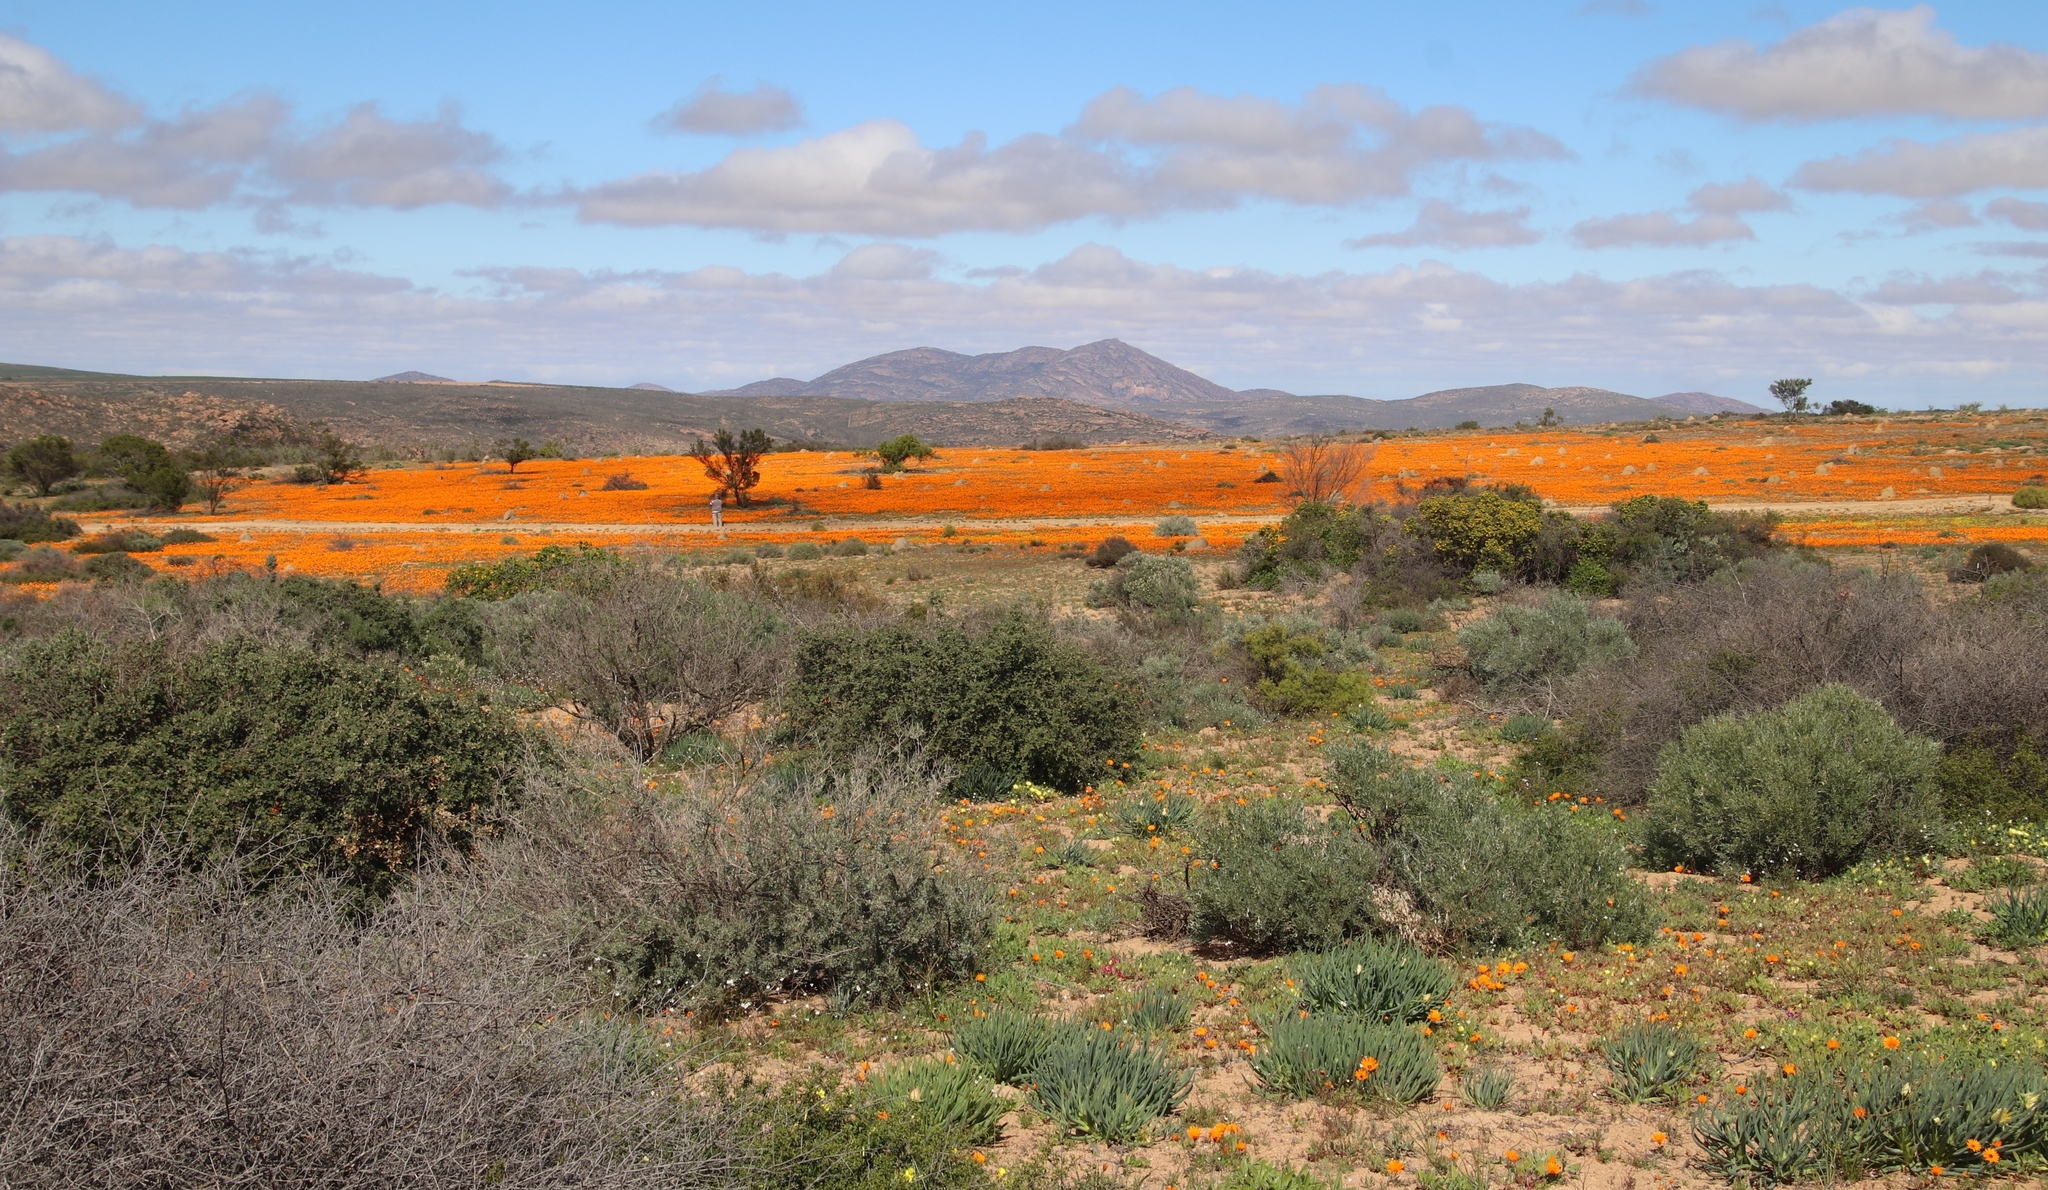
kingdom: Plantae
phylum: Tracheophyta
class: Magnoliopsida
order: Asterales
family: Asteraceae
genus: Dimorphotheca
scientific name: Dimorphotheca sinuata
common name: Glandular cape marigold
